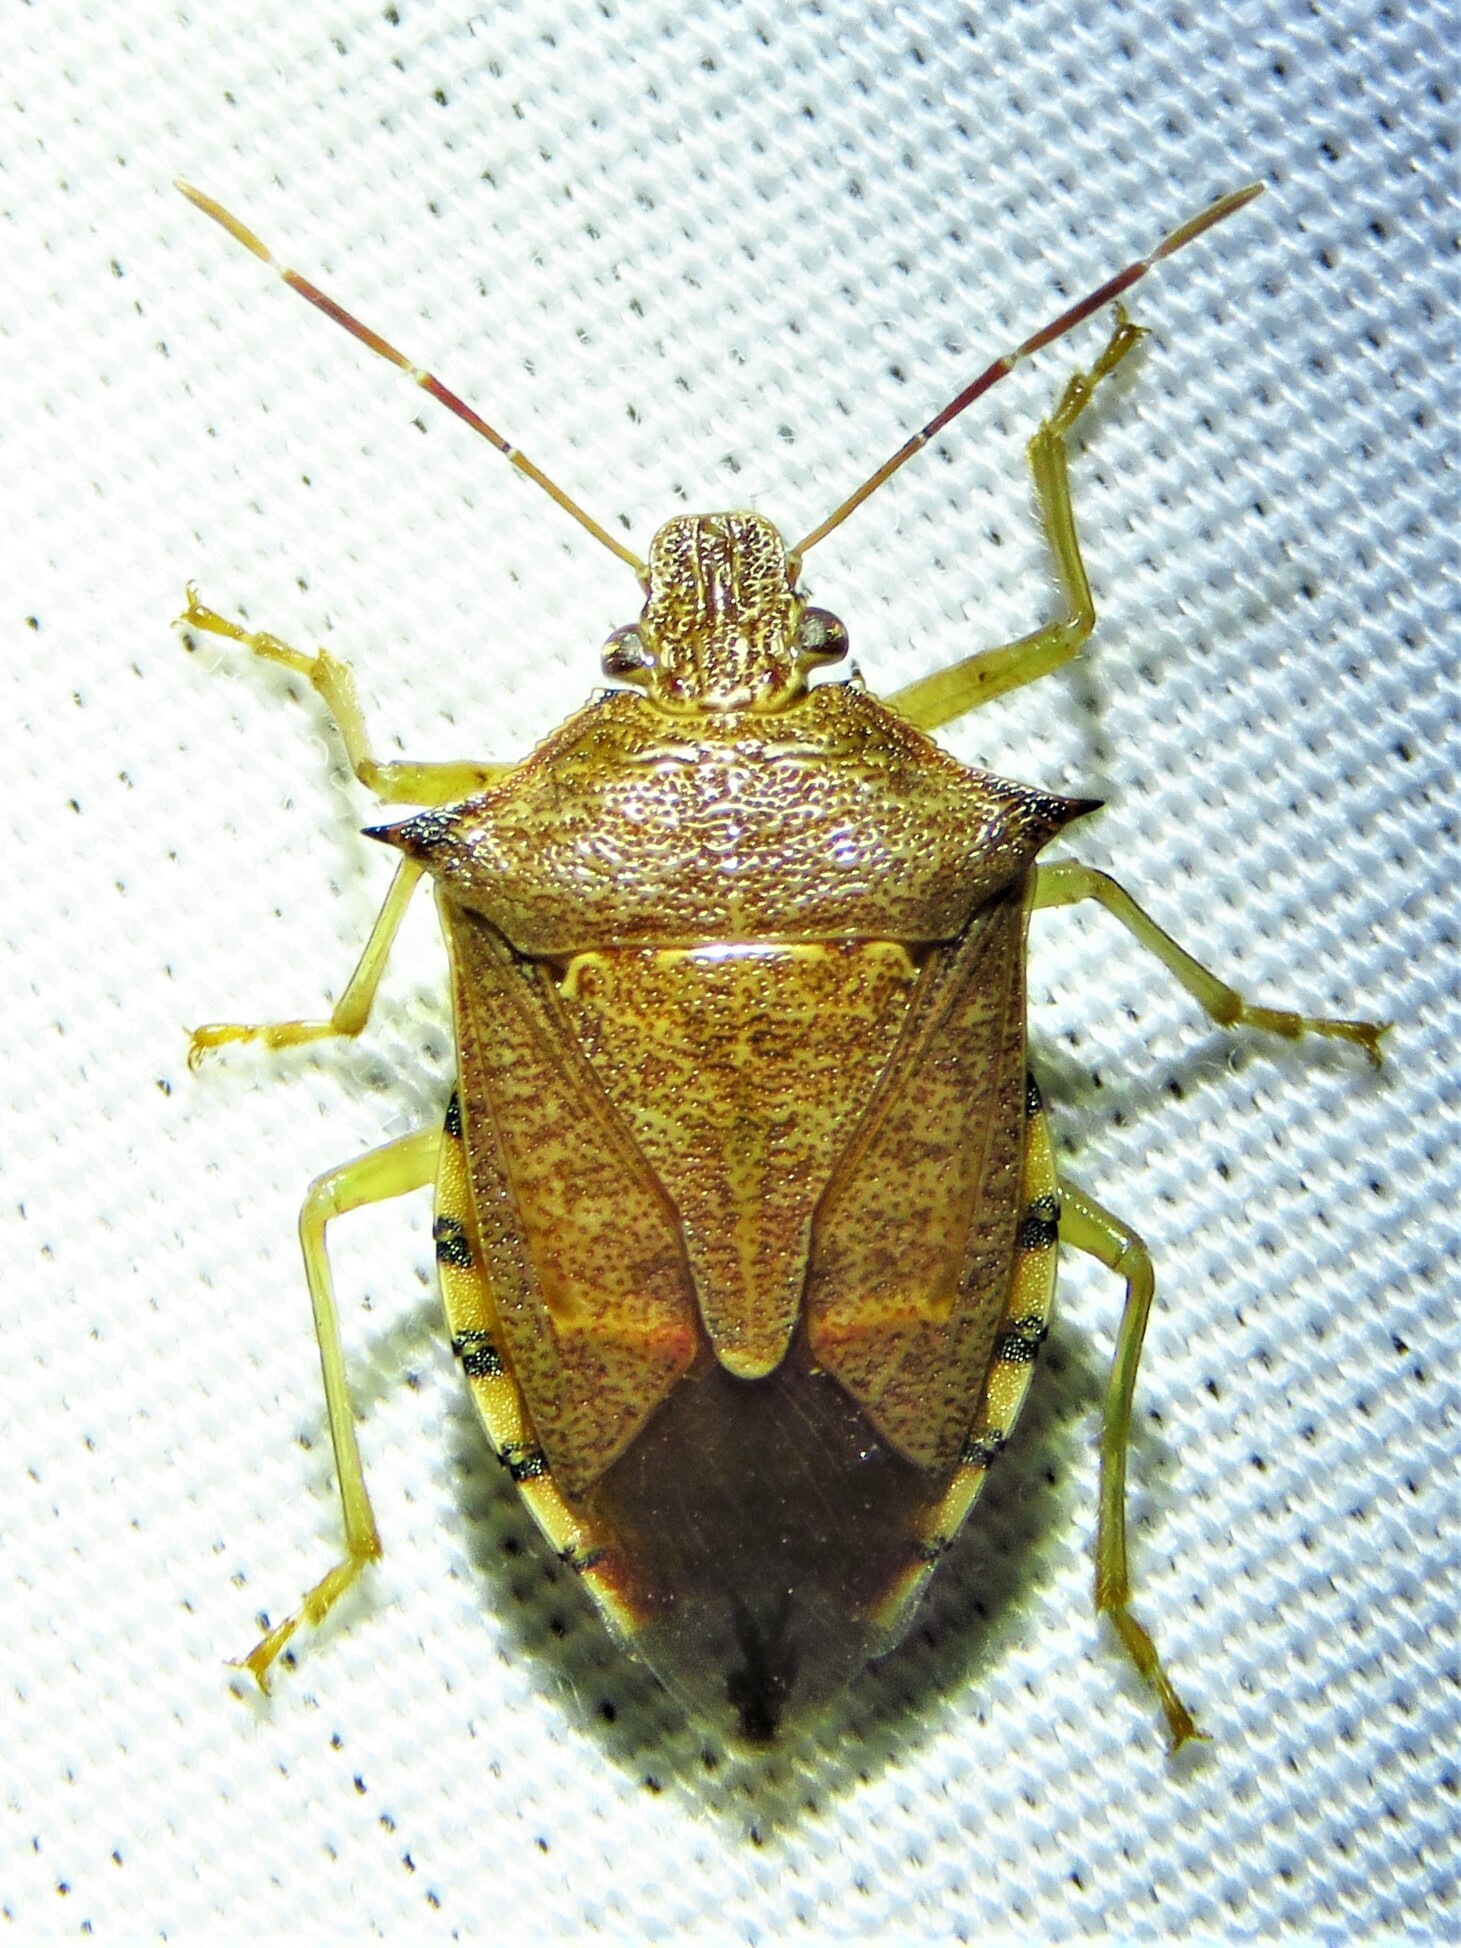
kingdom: Animalia
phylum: Arthropoda
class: Insecta
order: Hemiptera
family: Pentatomidae
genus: Podisus
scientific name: Podisus maculiventris
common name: Spined soldier bug
